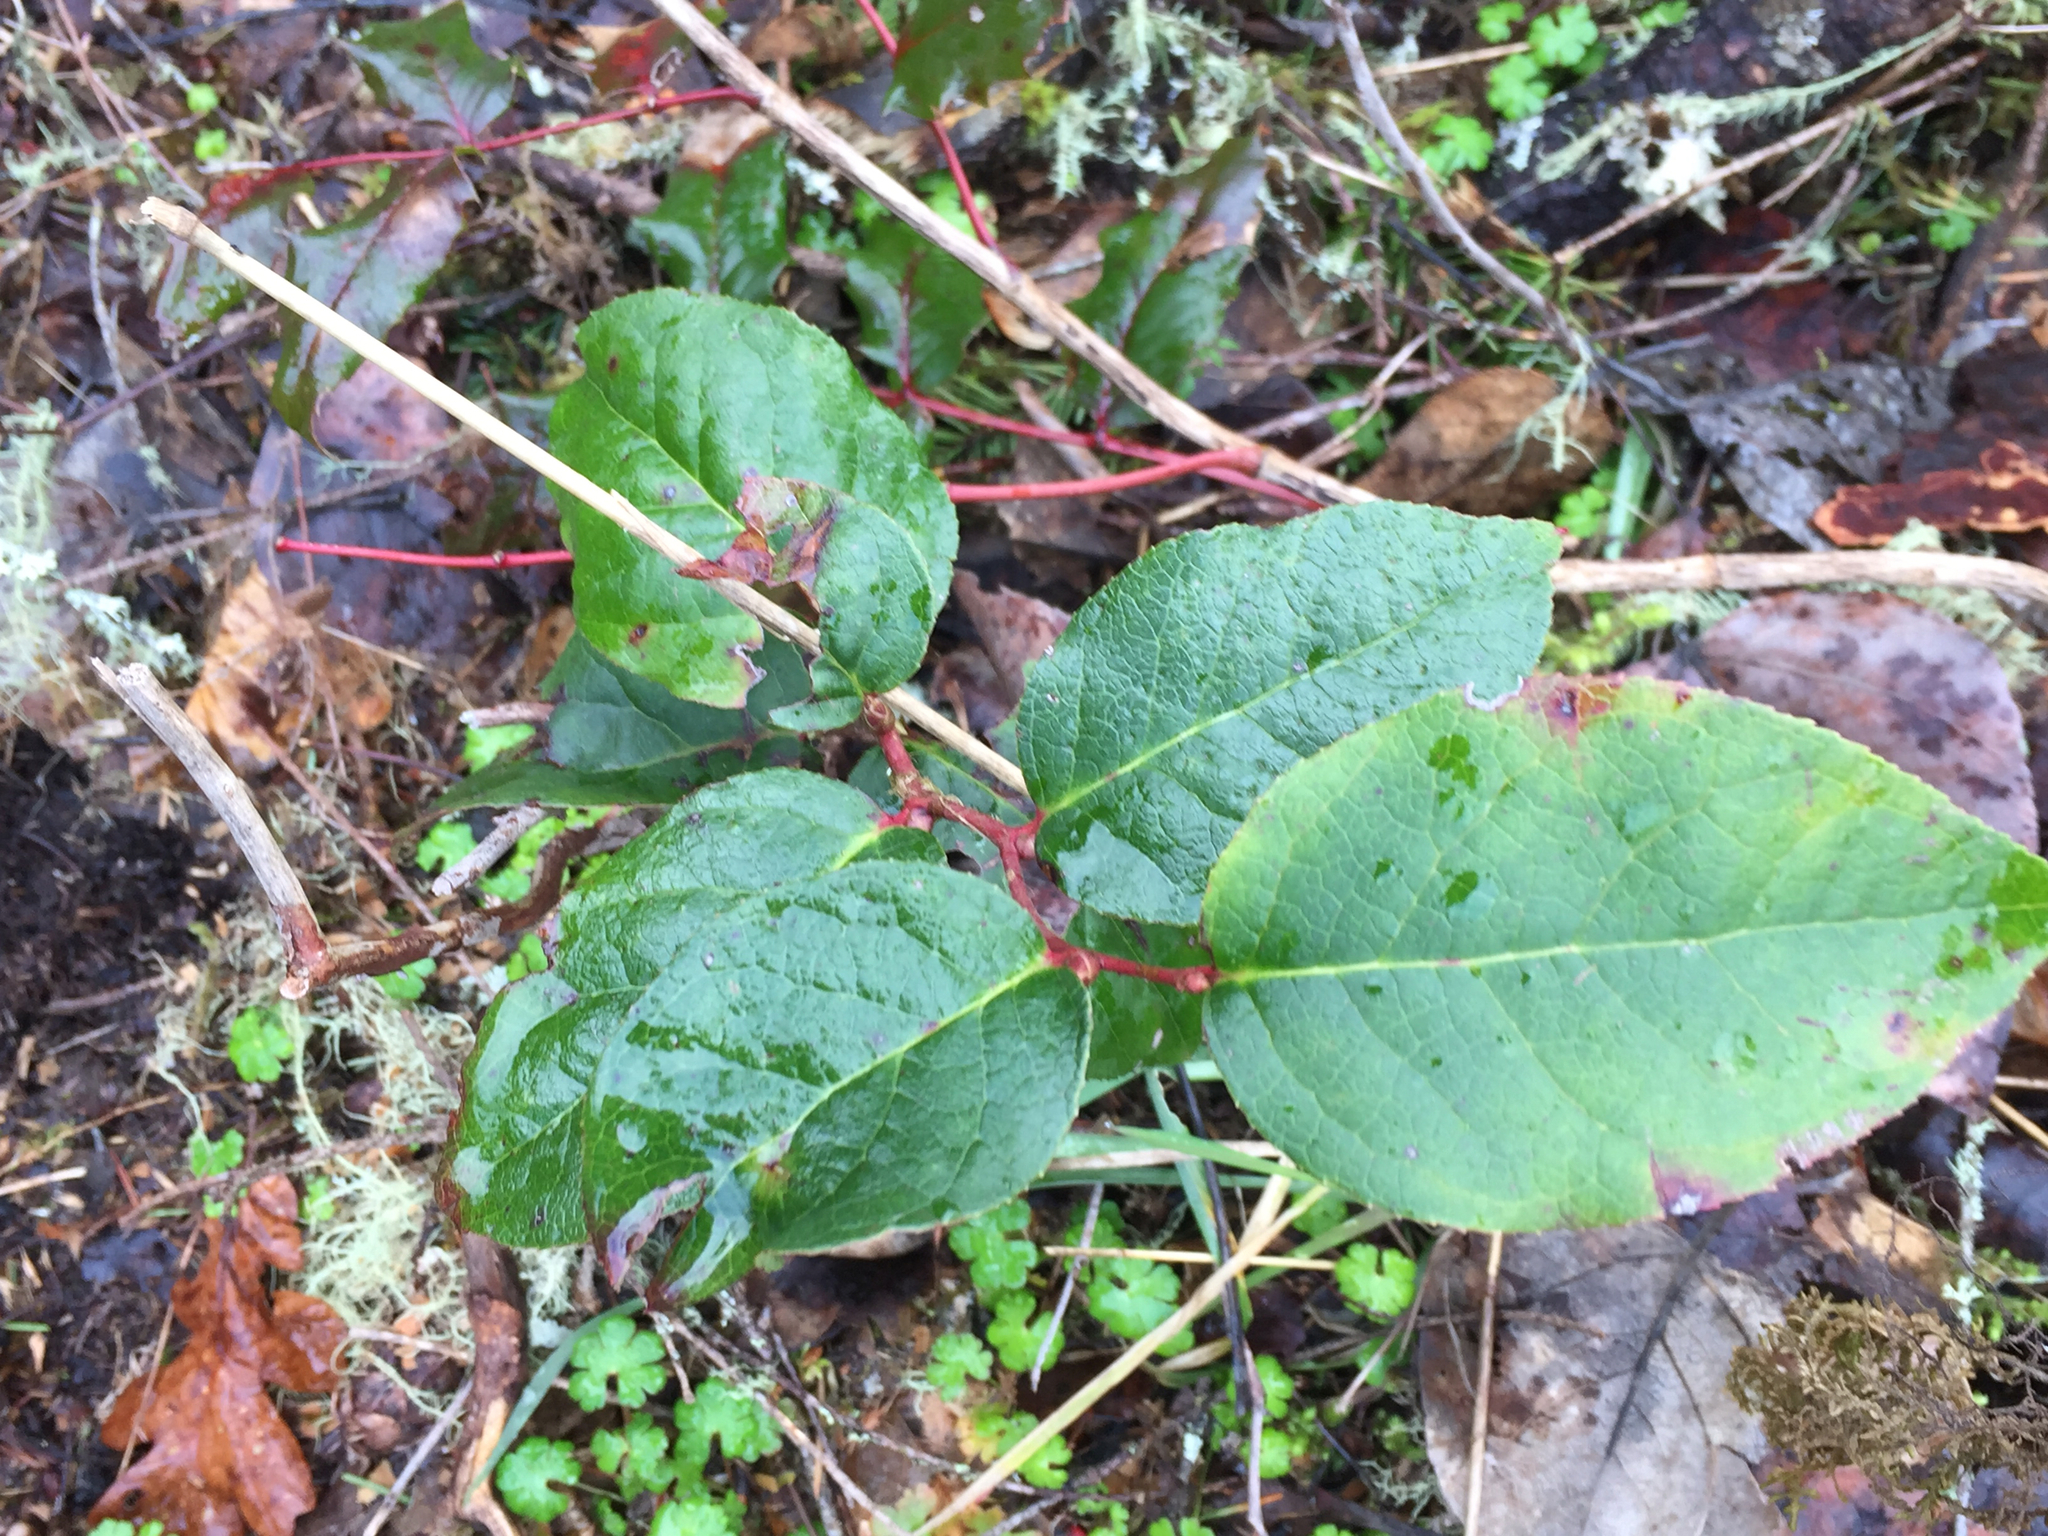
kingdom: Plantae
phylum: Tracheophyta
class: Magnoliopsida
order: Ericales
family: Ericaceae
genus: Gaultheria
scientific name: Gaultheria shallon
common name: Shallon
